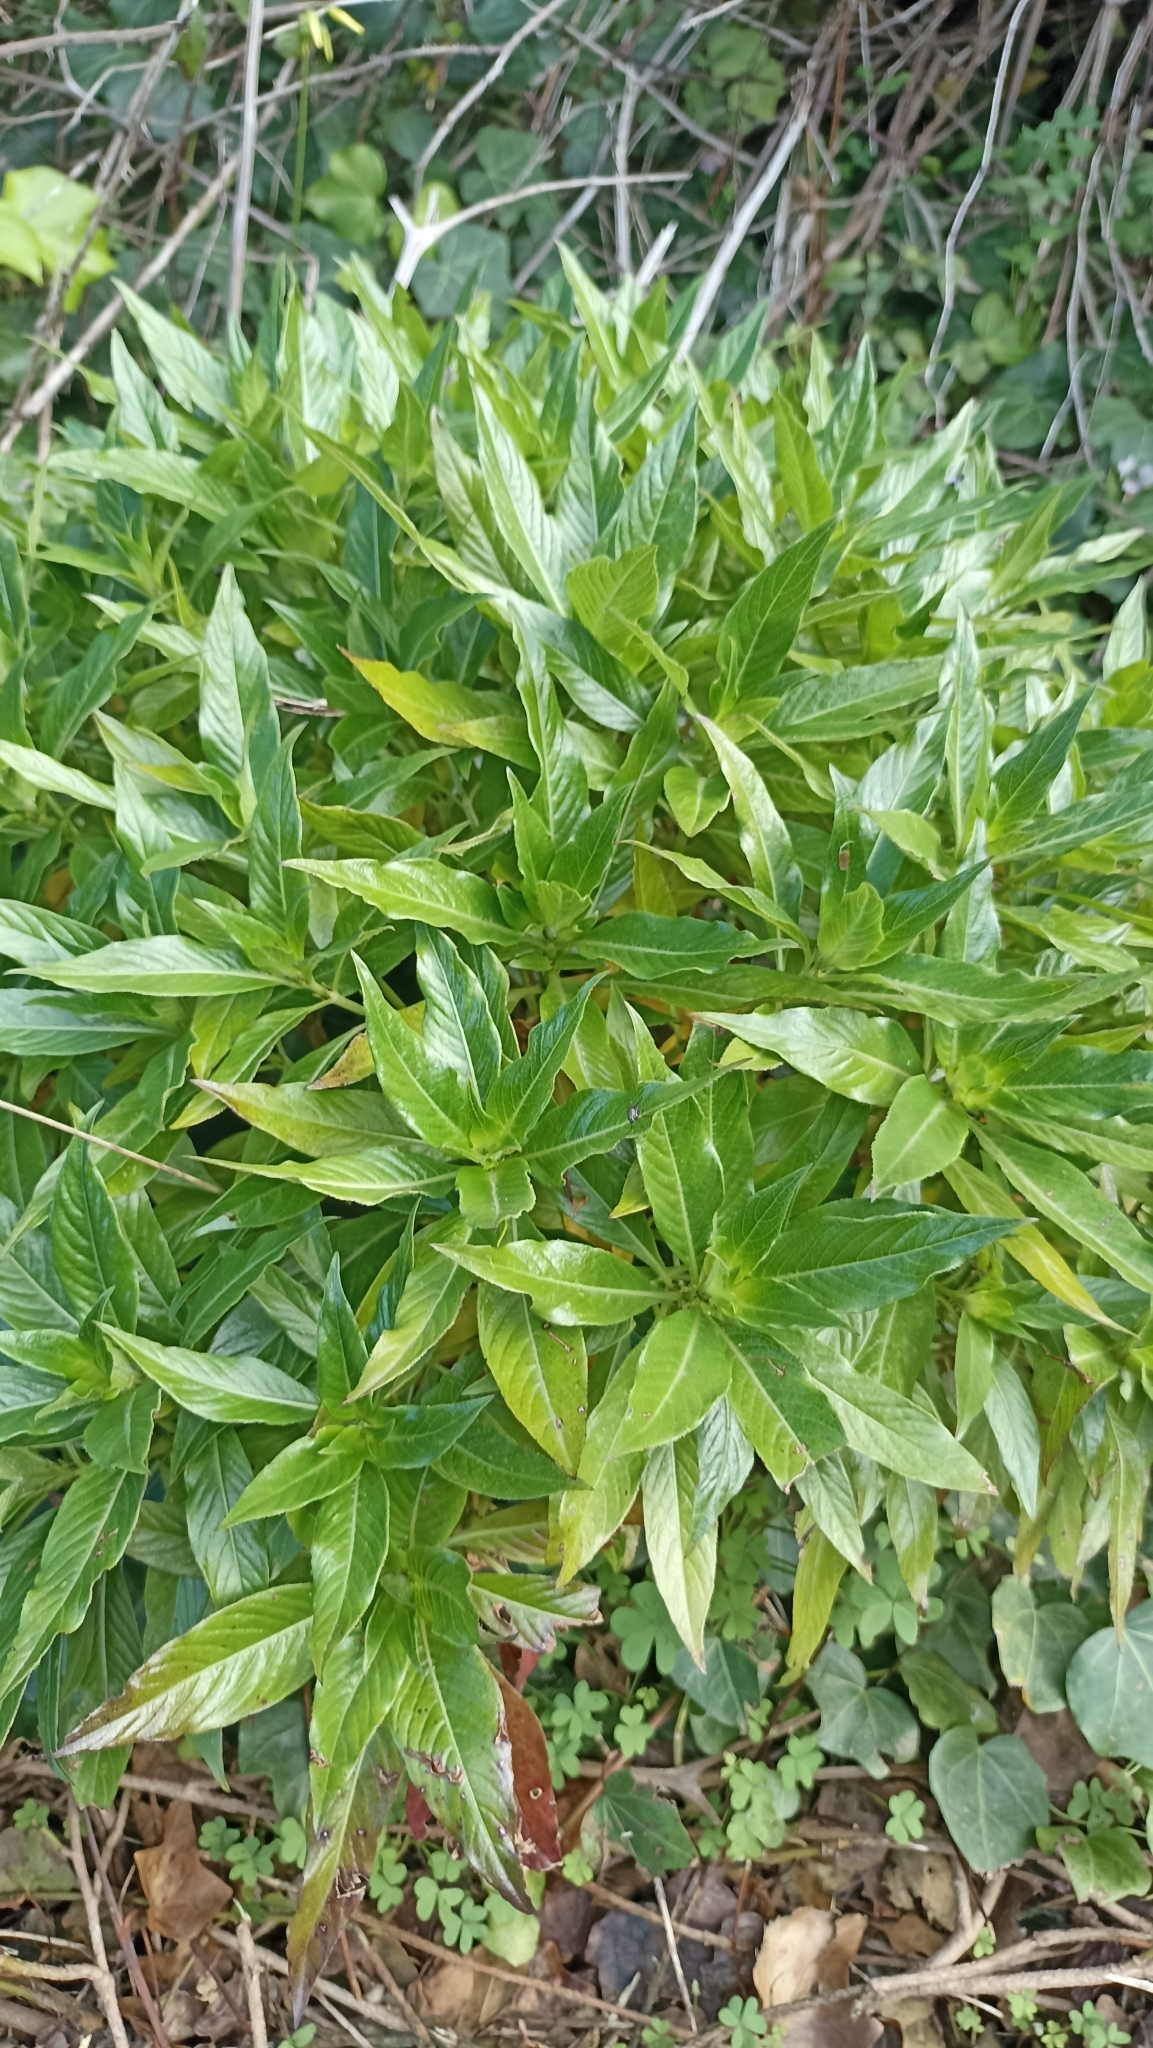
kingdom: Plantae
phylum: Tracheophyta
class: Magnoliopsida
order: Gentianales
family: Rubiaceae
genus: Phyllis
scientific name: Phyllis nobla
